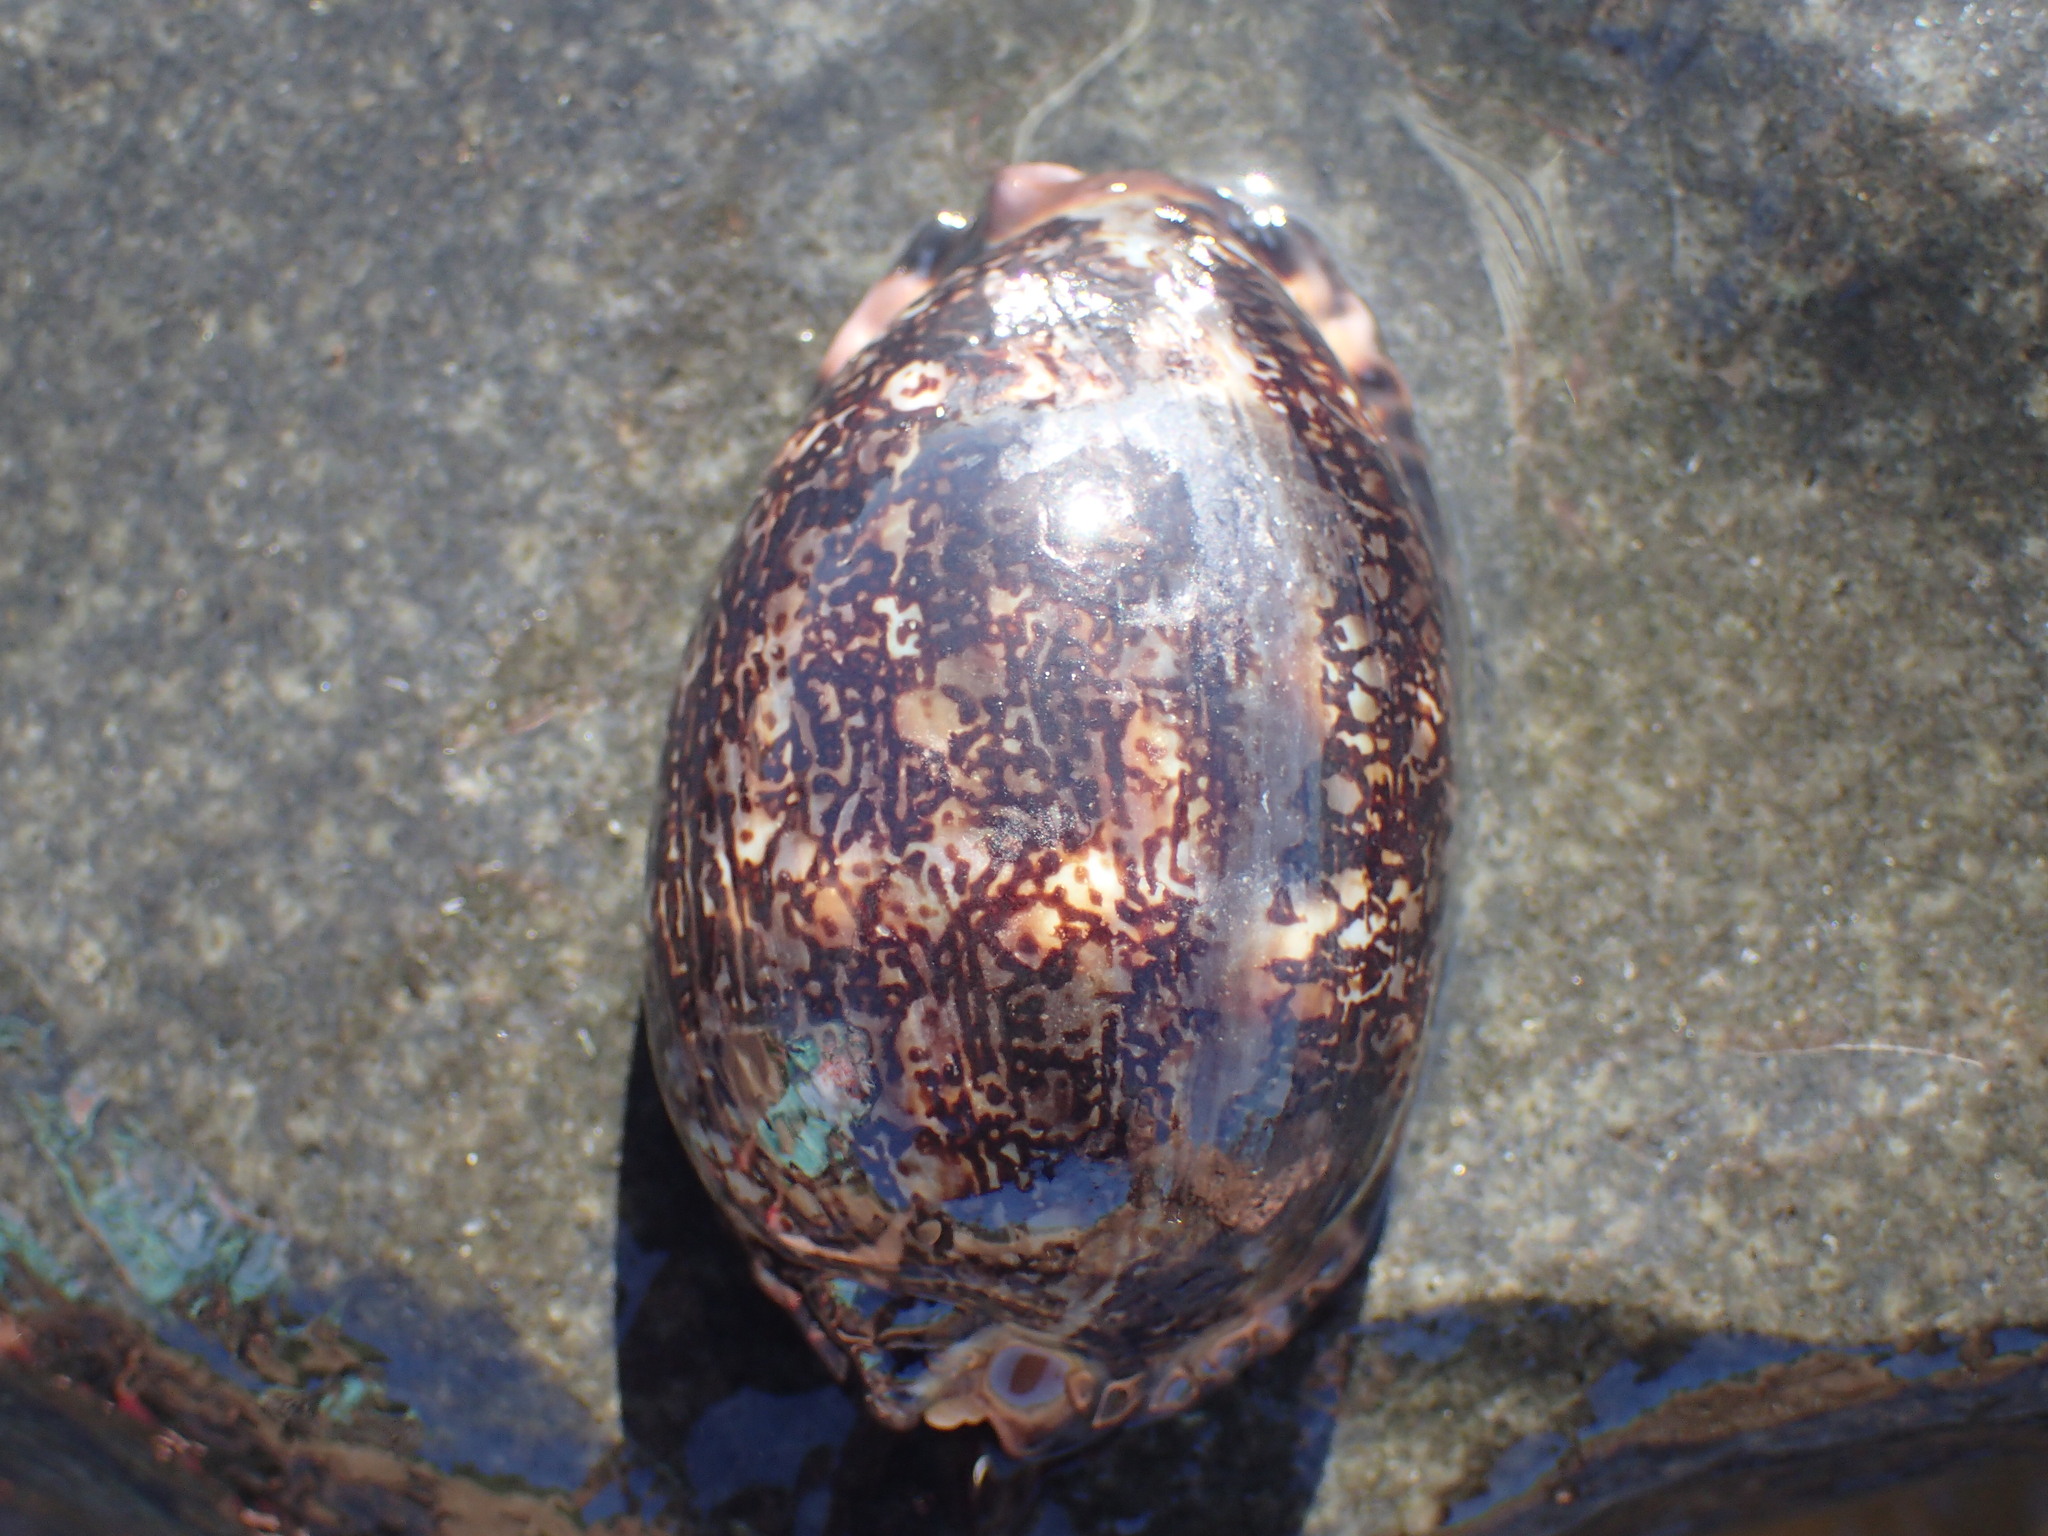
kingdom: Animalia
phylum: Mollusca
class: Gastropoda
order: Littorinimorpha
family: Cypraeidae
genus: Mauritia
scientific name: Mauritia arabica
